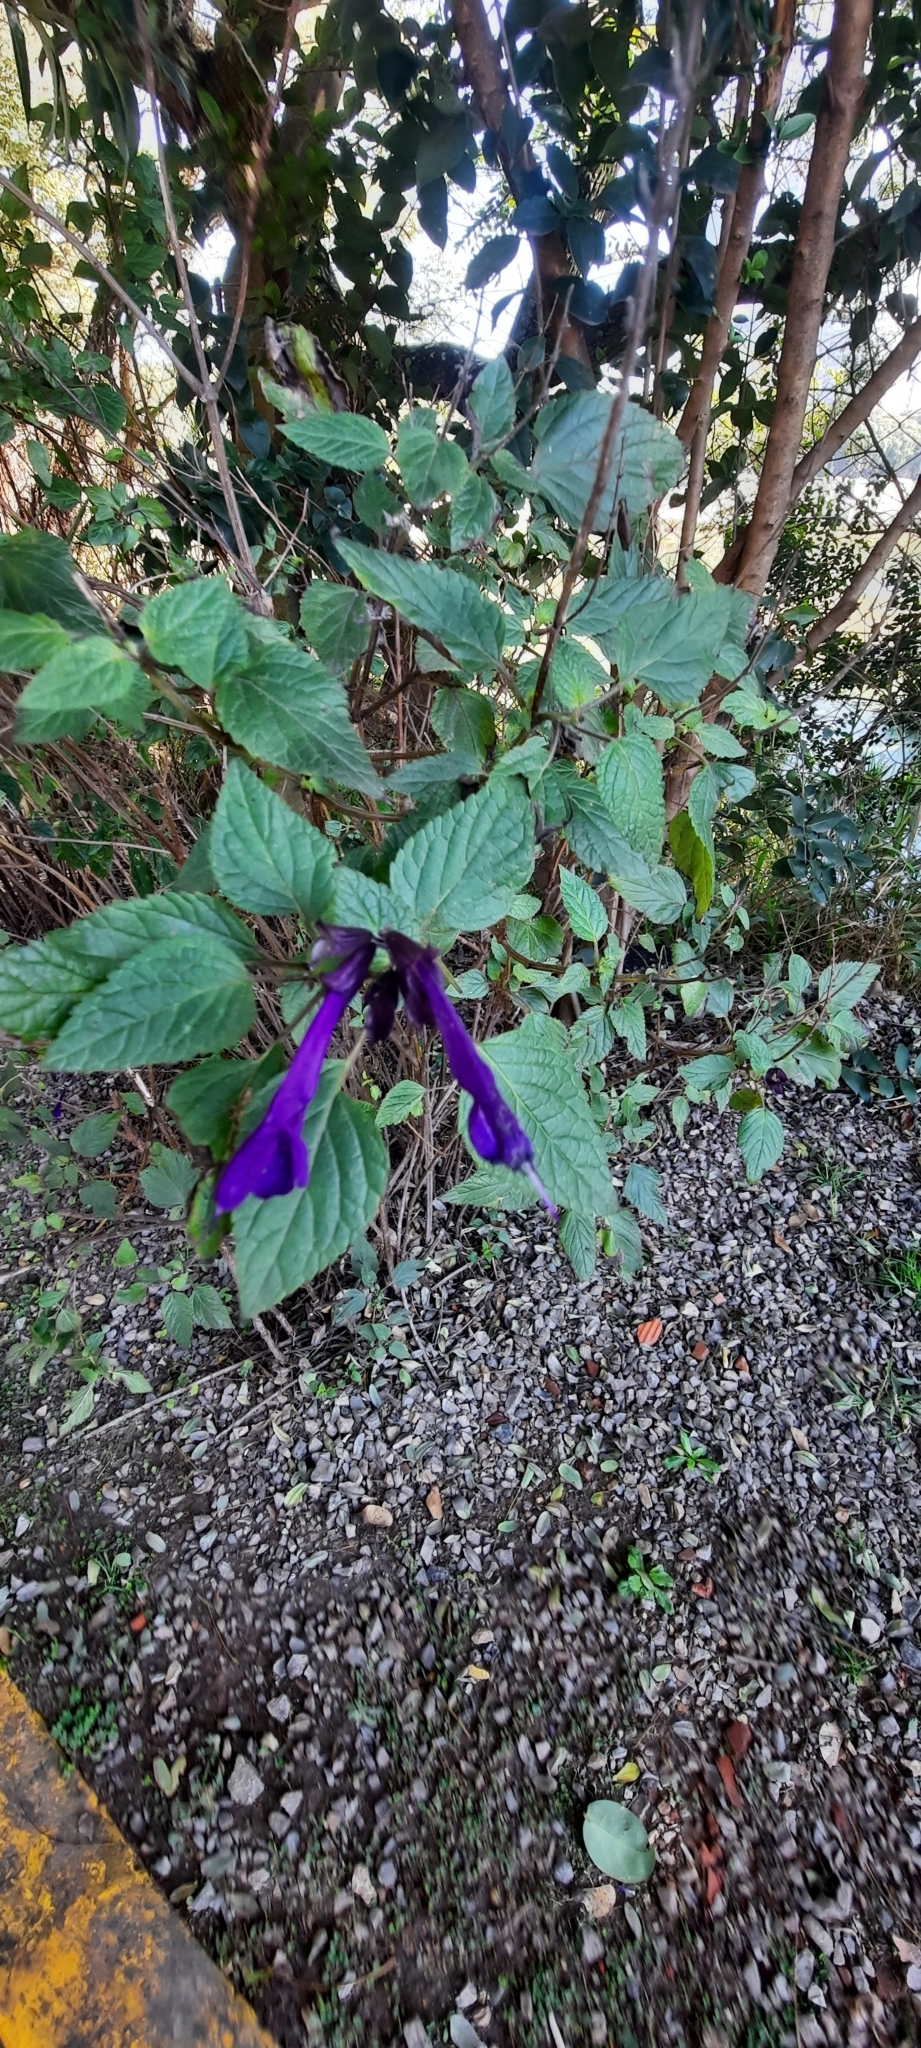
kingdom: Plantae
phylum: Tracheophyta
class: Magnoliopsida
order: Lamiales
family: Lamiaceae
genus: Salvia
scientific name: Salvia guaranitica
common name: Anise-scented sage
